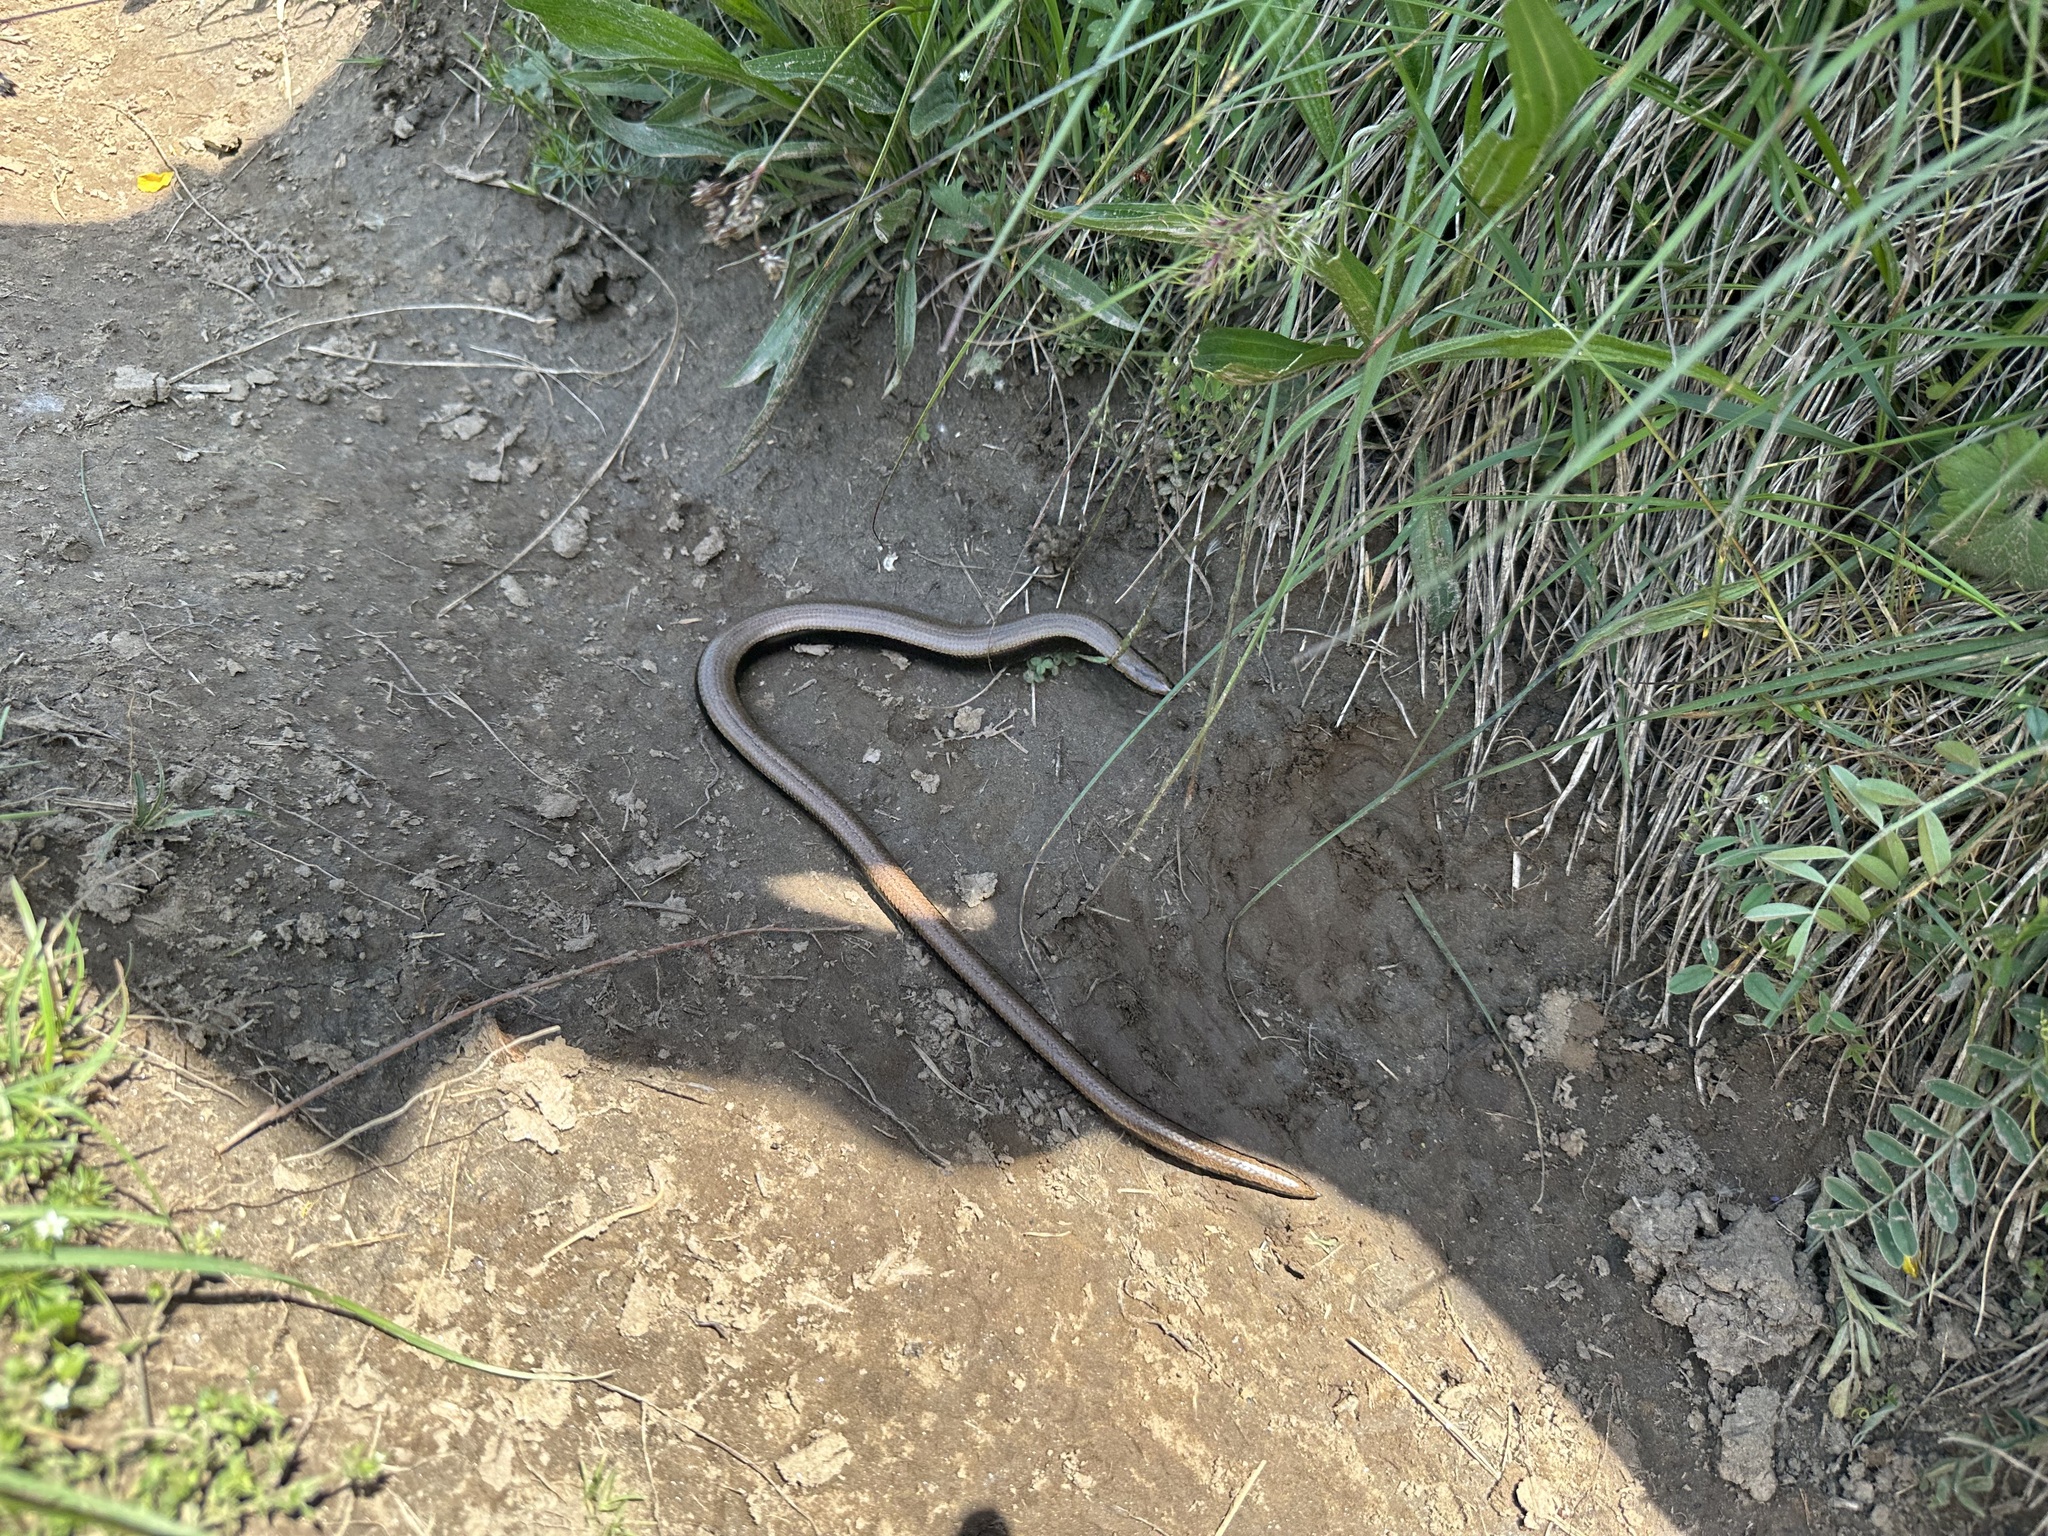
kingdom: Animalia
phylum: Chordata
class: Squamata
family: Anguidae
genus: Anguis
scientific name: Anguis fragilis
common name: Slow worm
